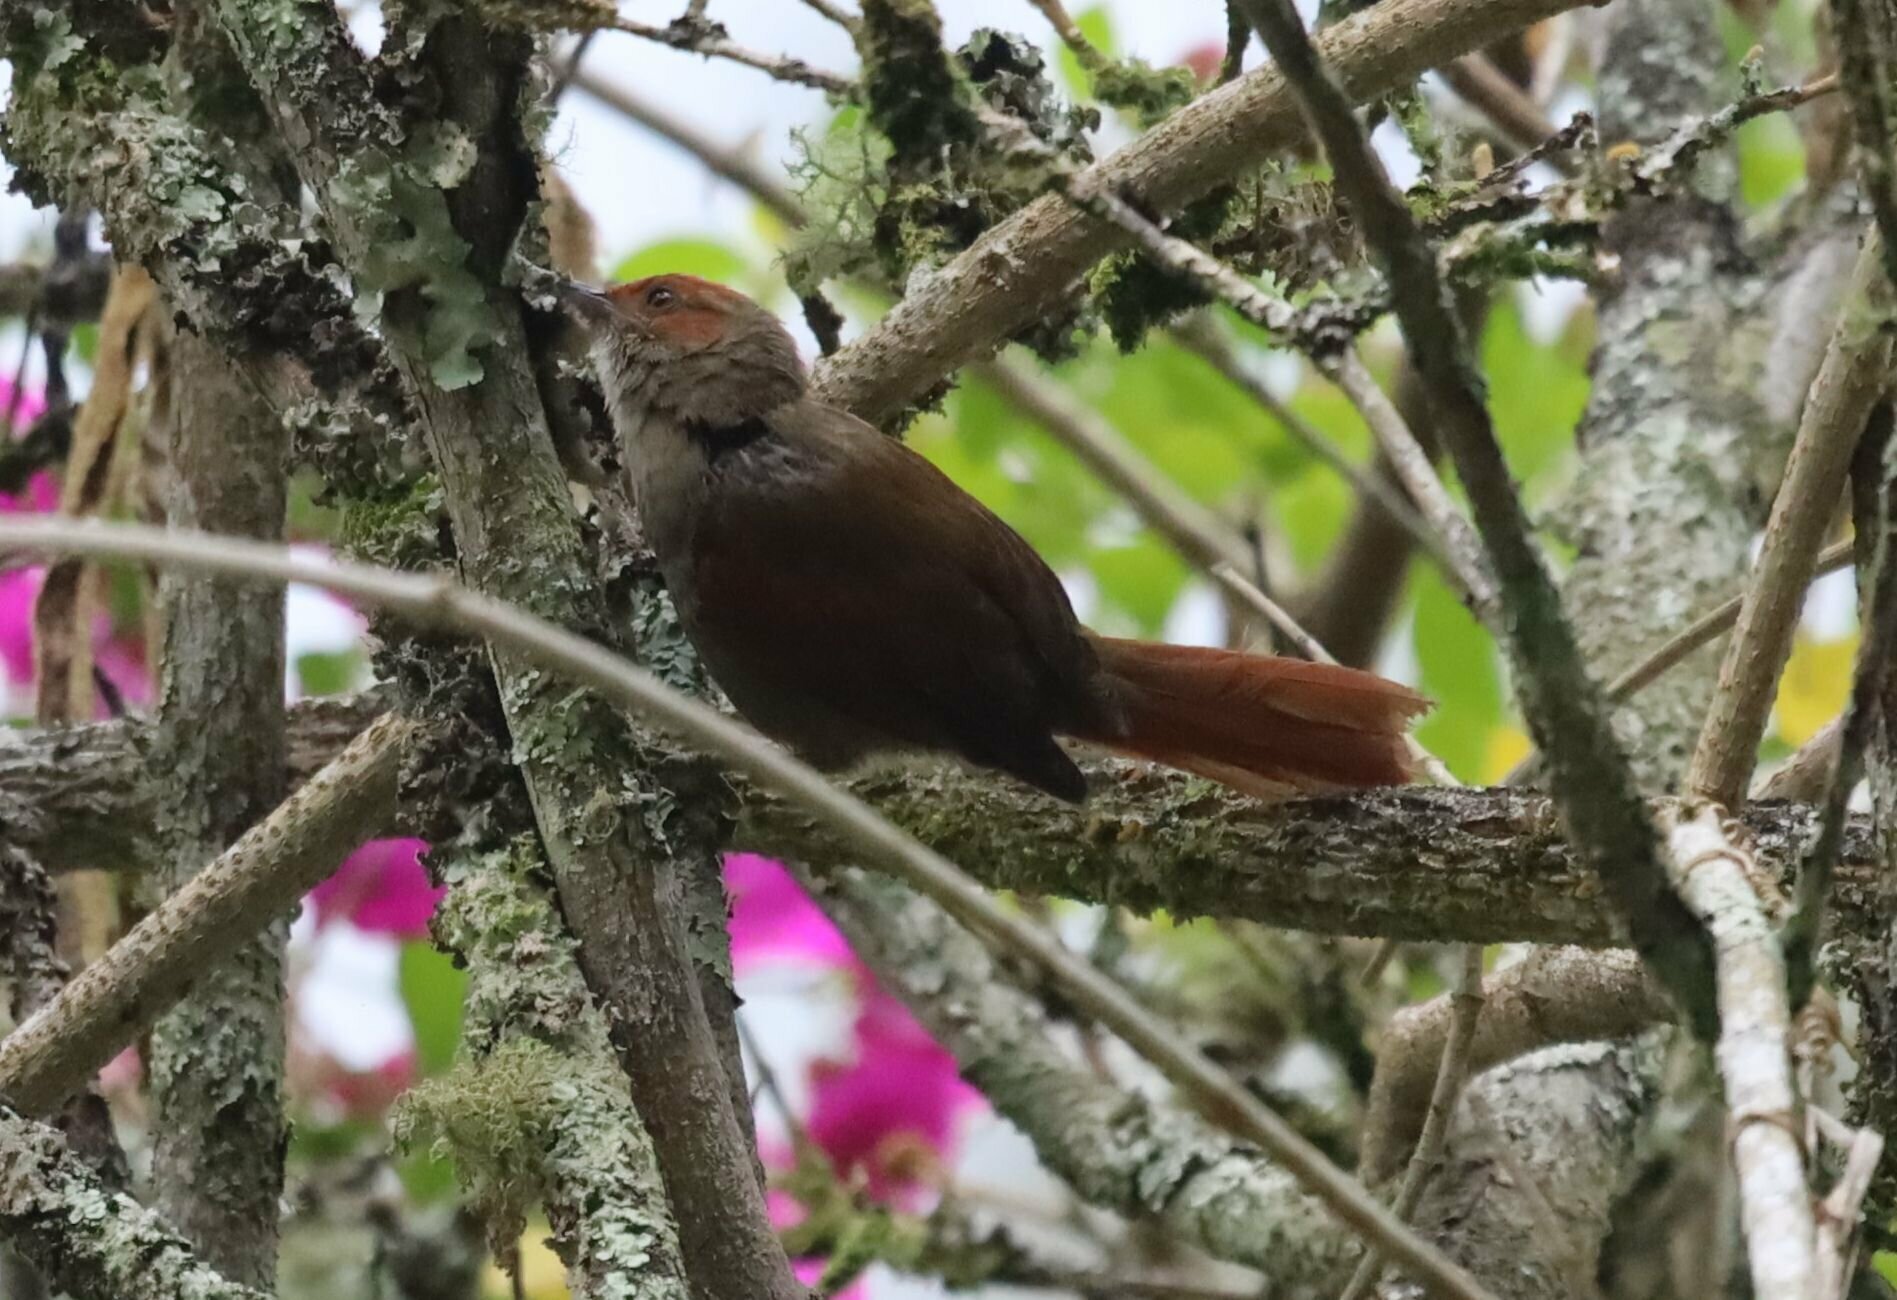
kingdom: Animalia
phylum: Chordata
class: Aves
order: Passeriformes
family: Furnariidae
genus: Cranioleuca
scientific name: Cranioleuca erythrops
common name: Red-faced spinetail
